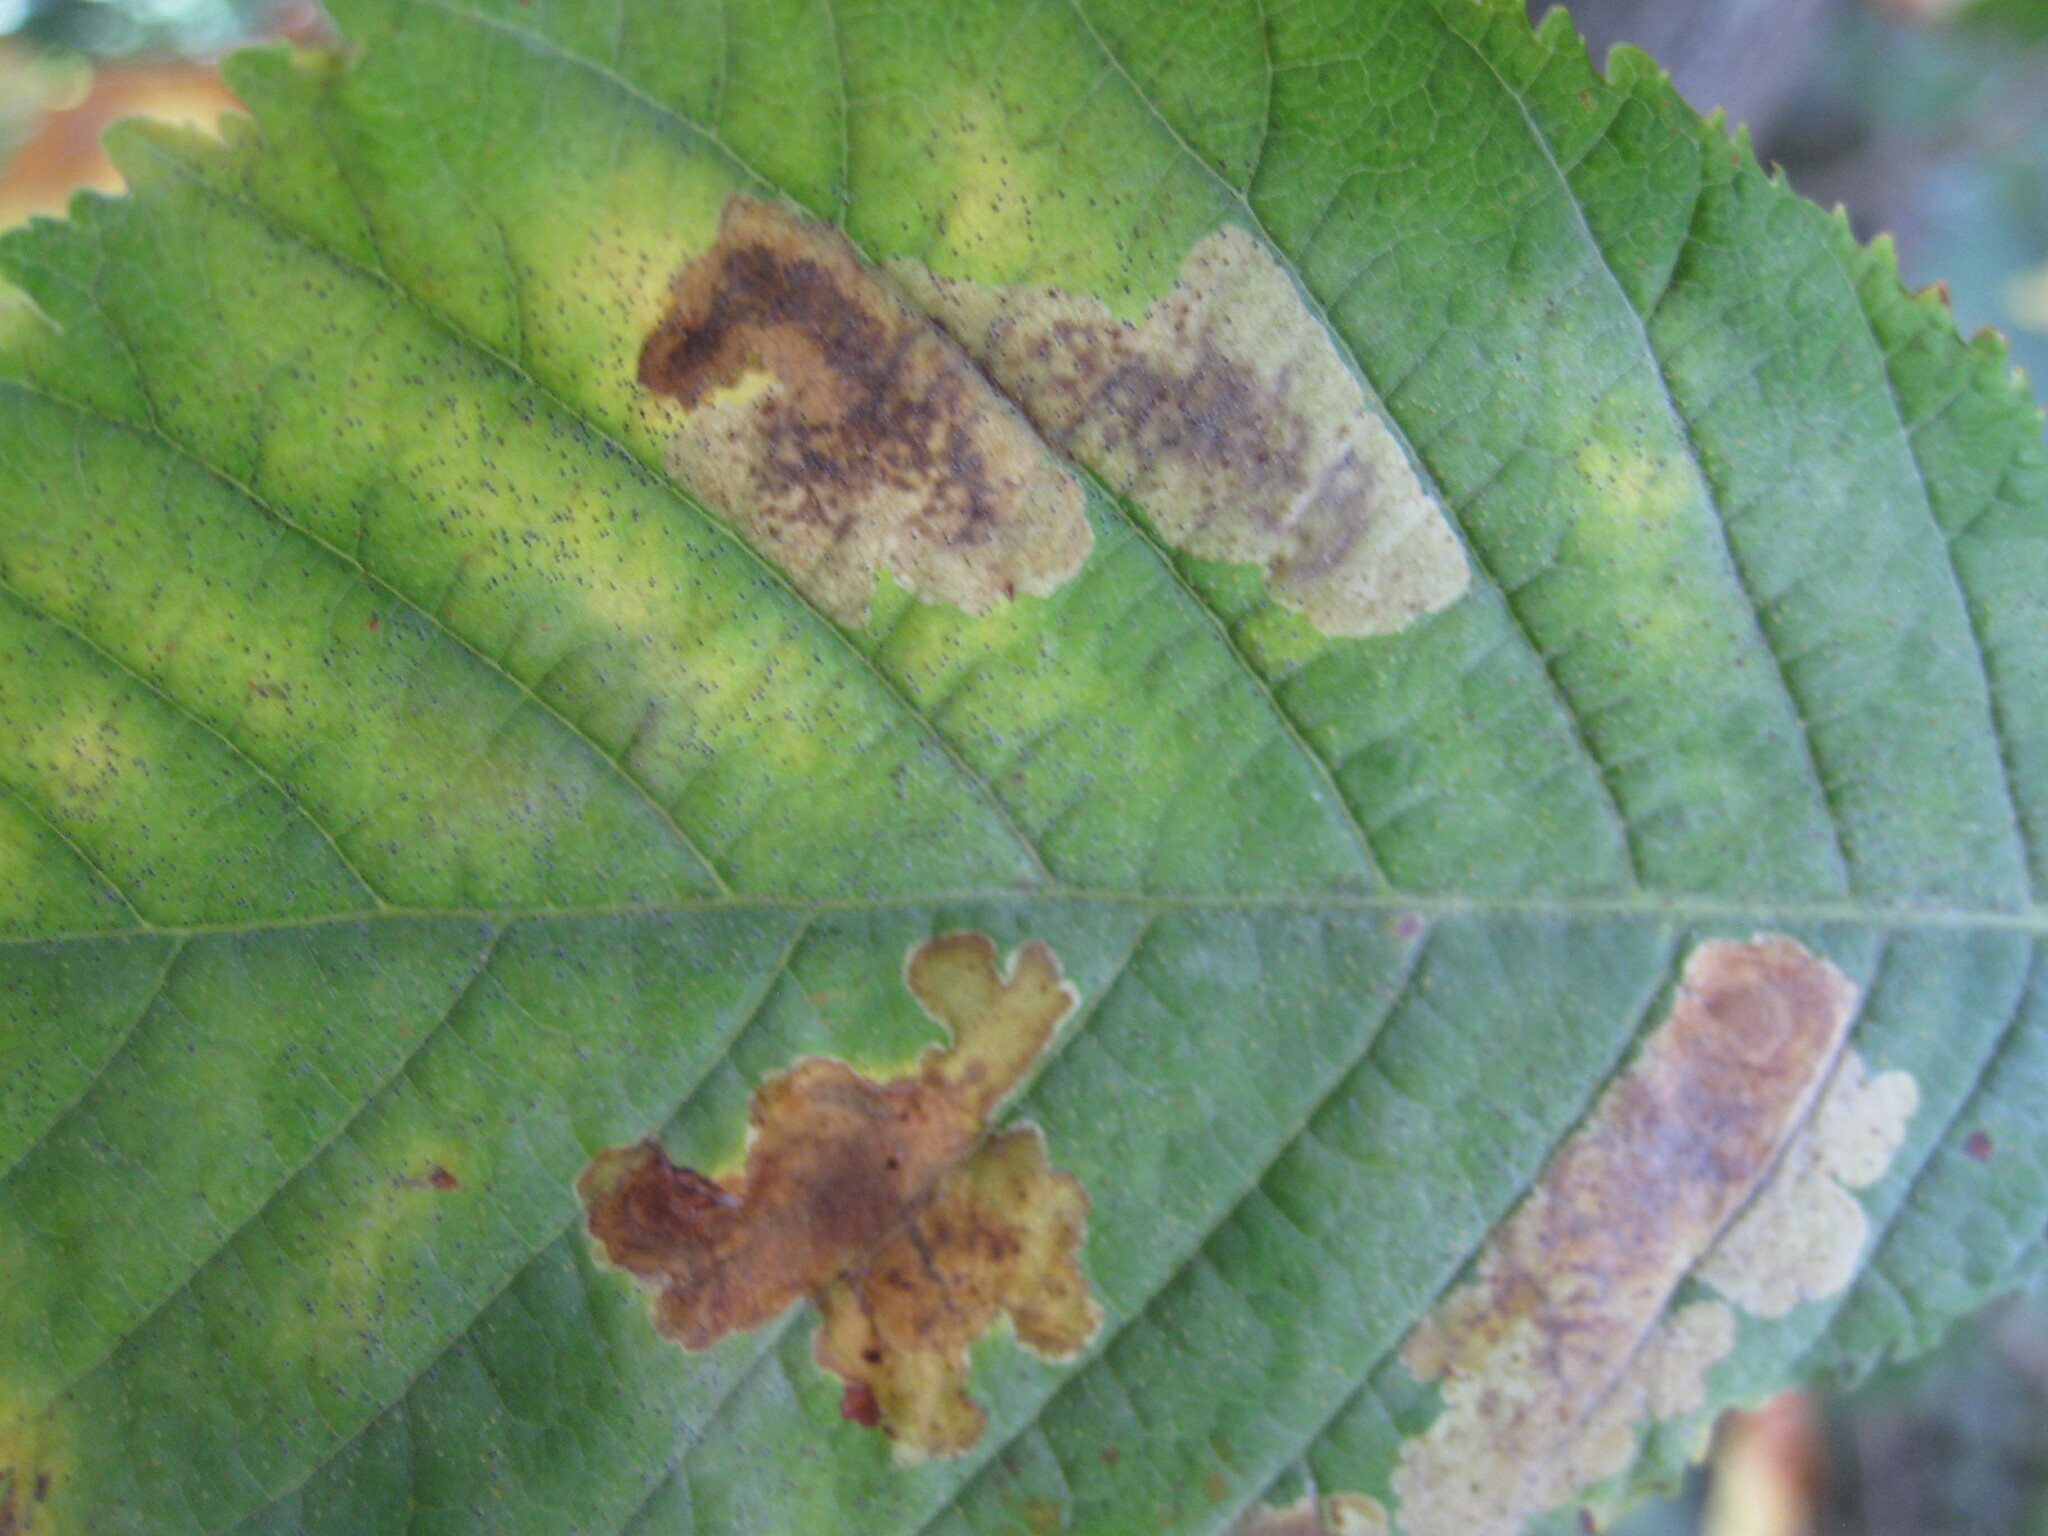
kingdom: Animalia
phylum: Arthropoda
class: Insecta
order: Lepidoptera
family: Gracillariidae
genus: Cameraria
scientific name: Cameraria ohridella
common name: Horse-chestnut leaf-miner
